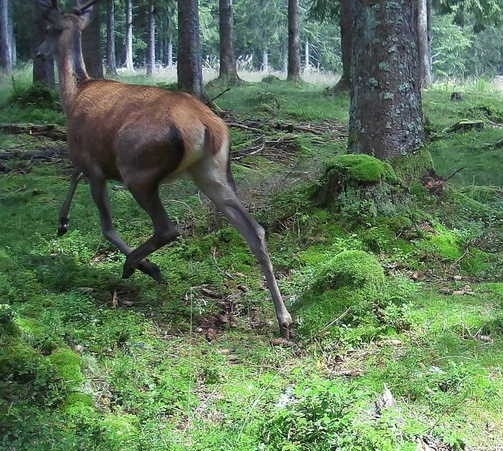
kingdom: Animalia
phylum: Chordata
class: Mammalia
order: Artiodactyla
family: Cervidae
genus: Cervus
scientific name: Cervus elaphus
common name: Red deer
